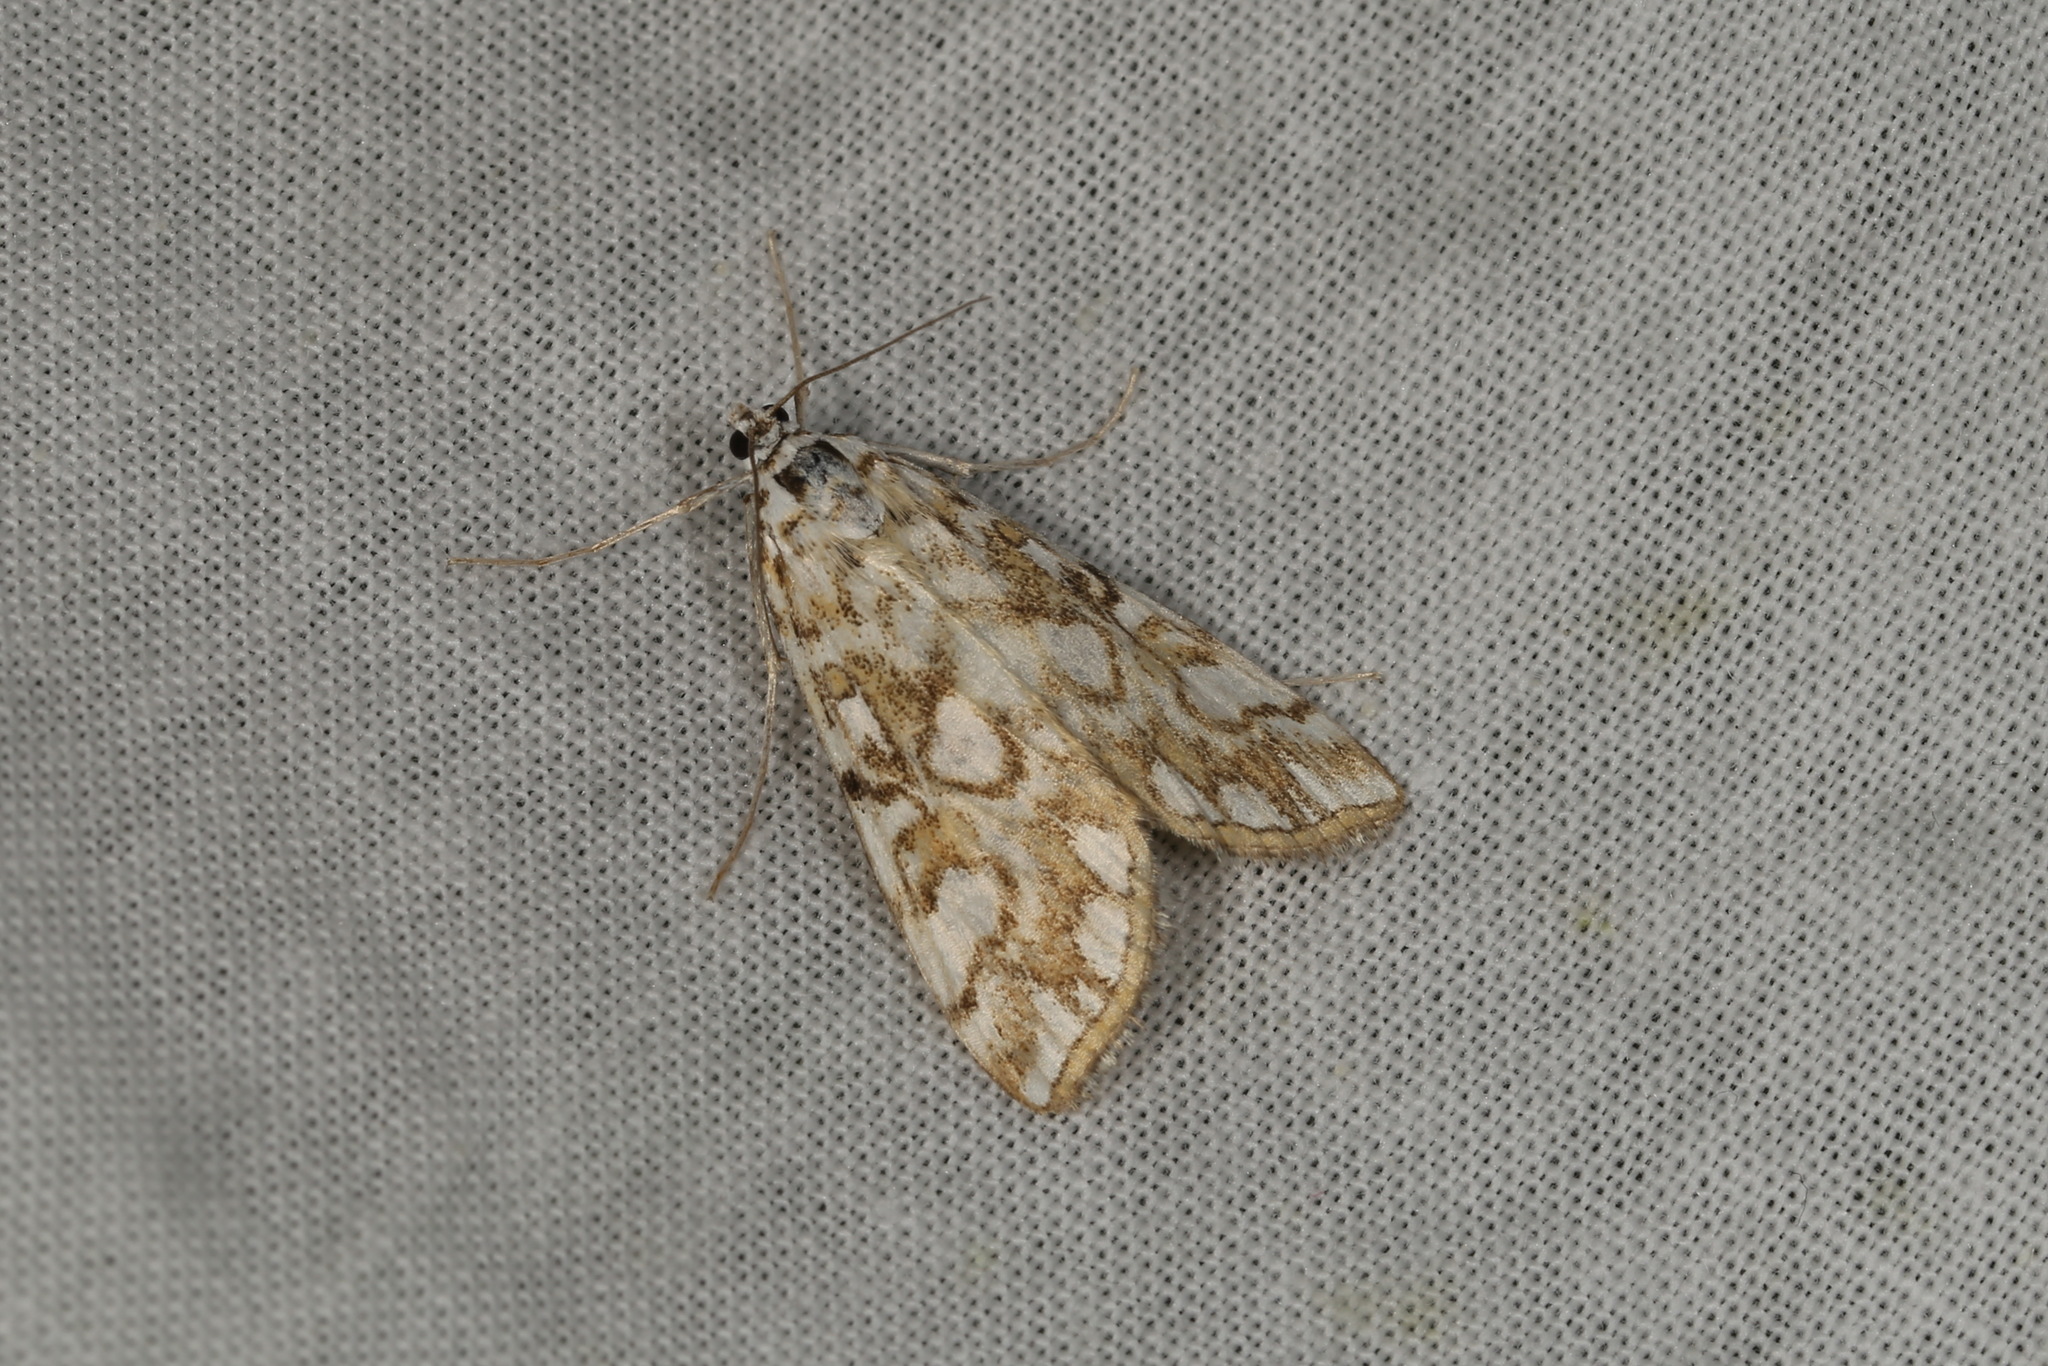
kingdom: Animalia
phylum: Arthropoda
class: Insecta
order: Lepidoptera
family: Crambidae
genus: Elophila
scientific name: Elophila nymphaeata
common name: Brown china-mark
